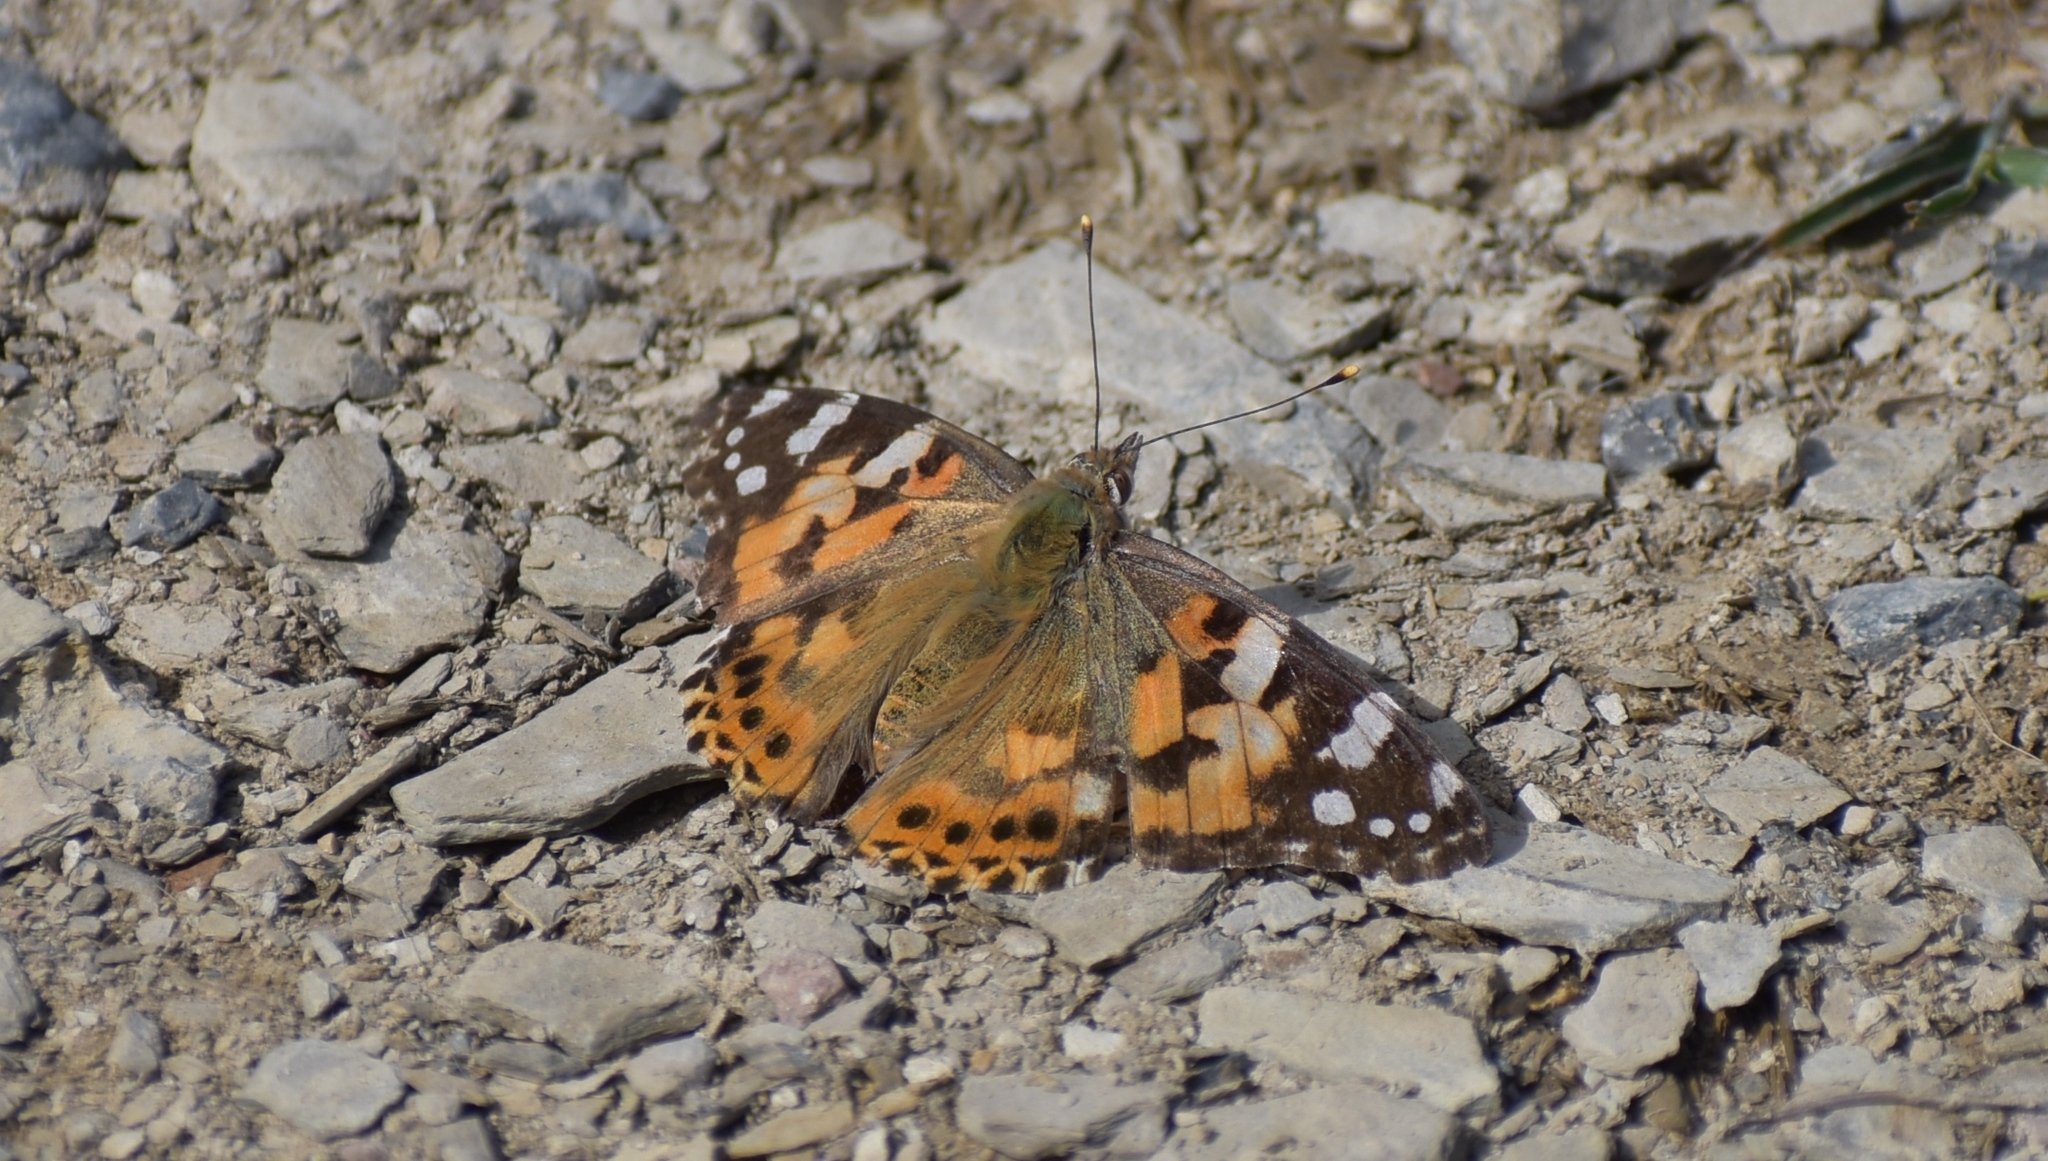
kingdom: Animalia
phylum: Arthropoda
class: Insecta
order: Lepidoptera
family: Nymphalidae
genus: Vanessa
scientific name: Vanessa cardui
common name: Painted lady
